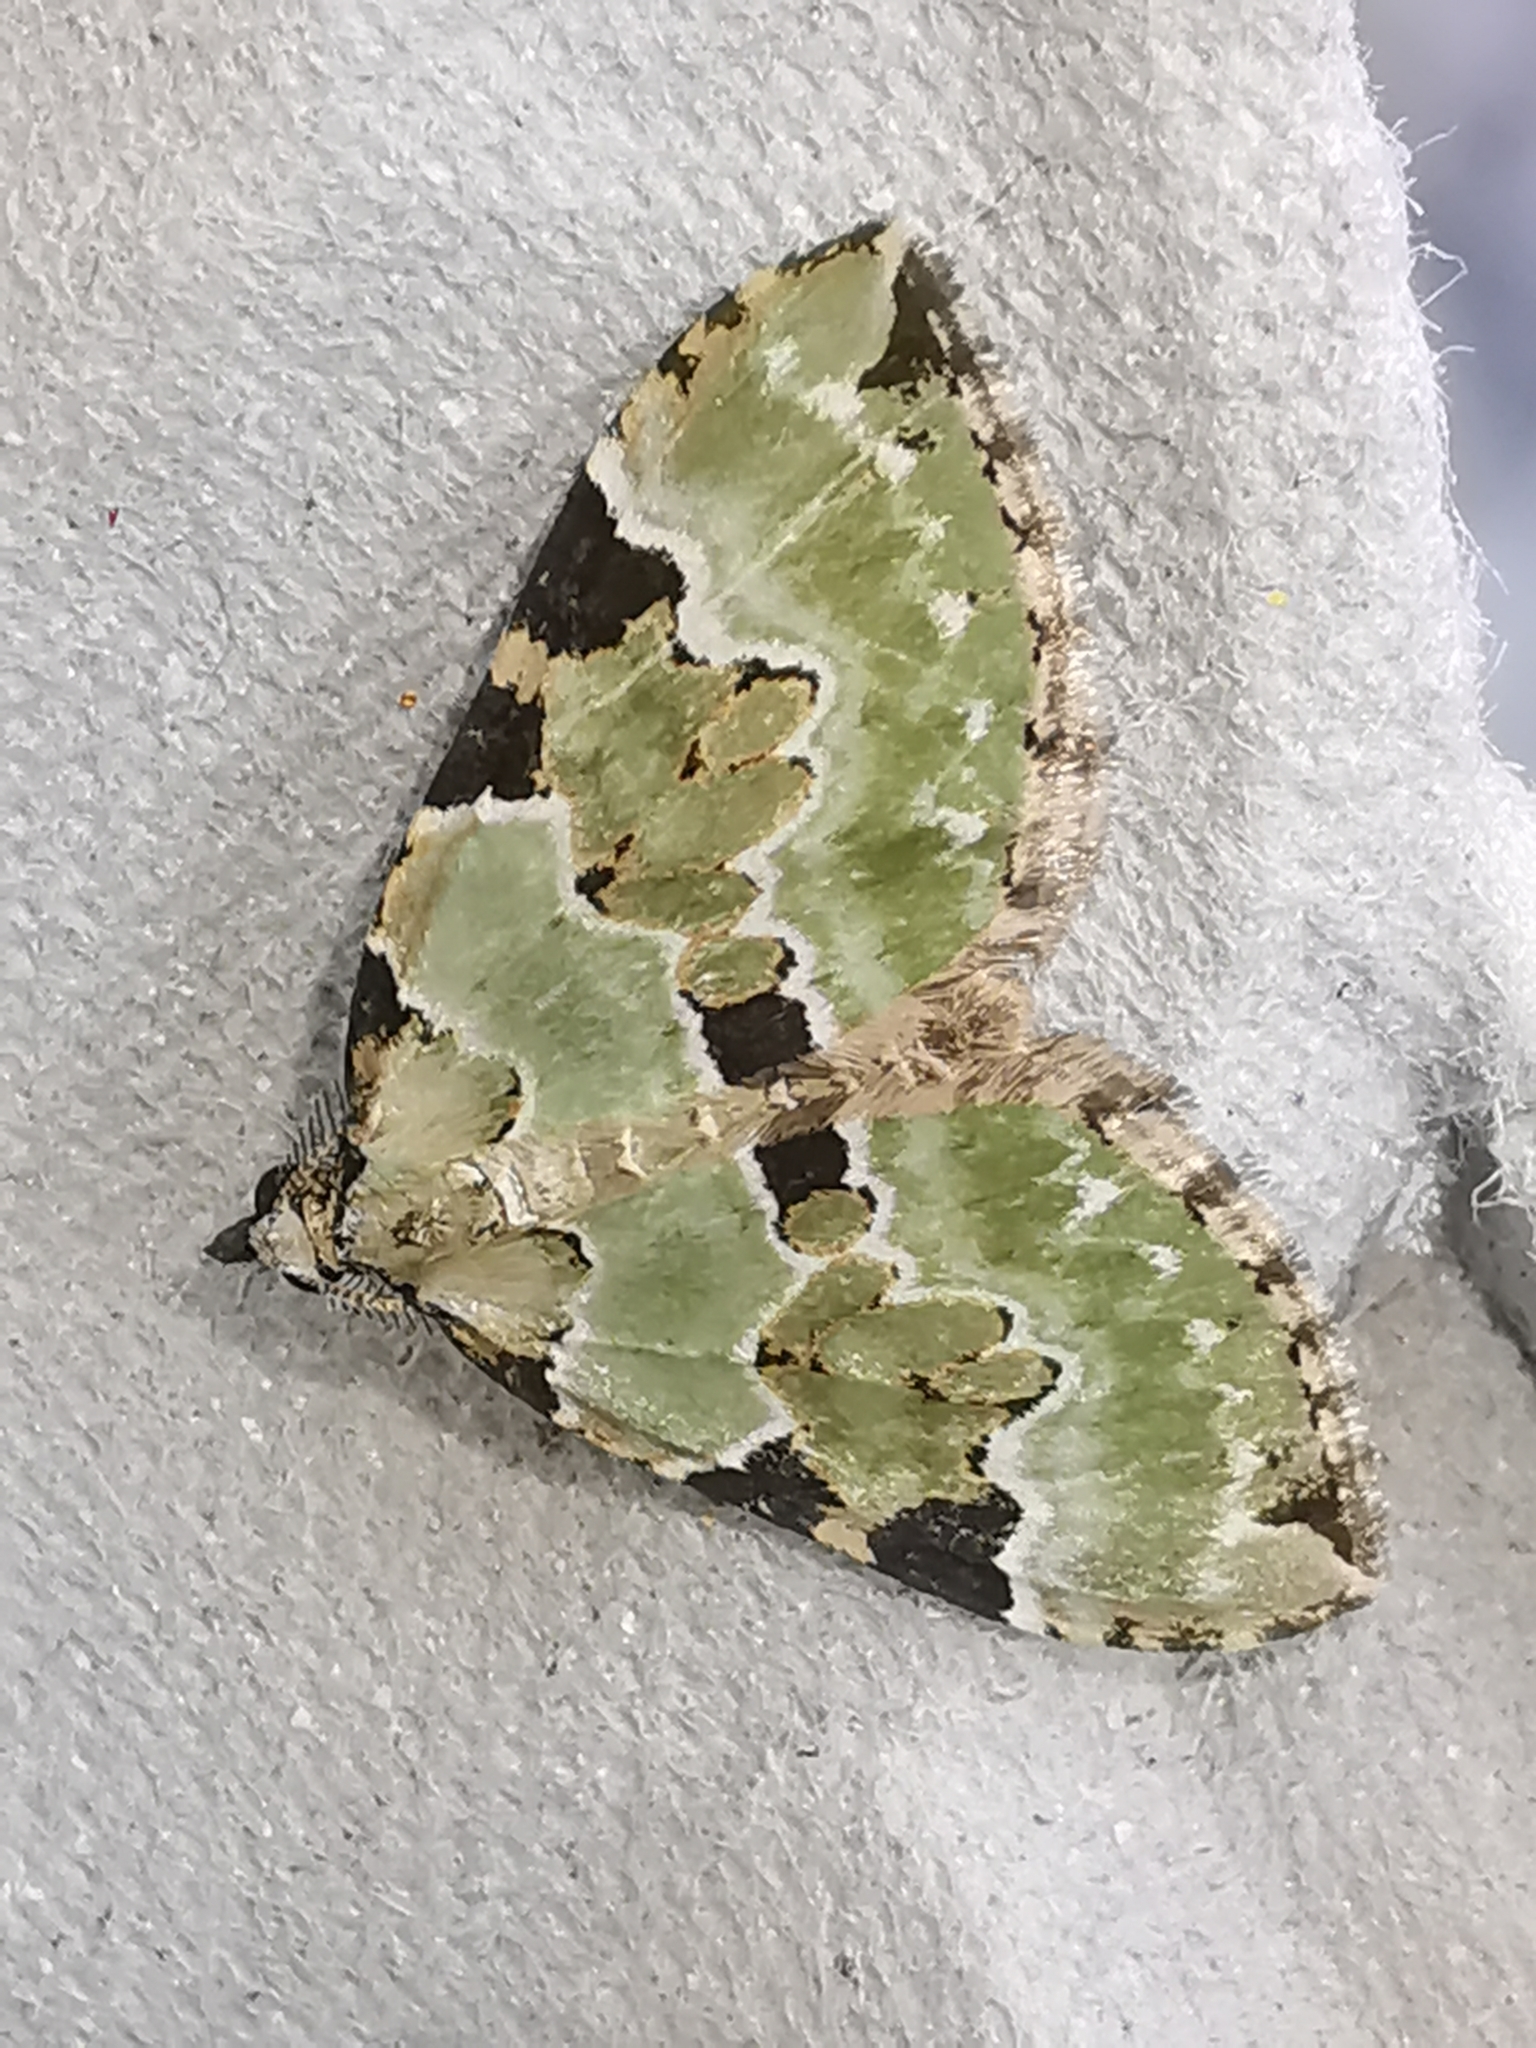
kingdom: Animalia
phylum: Arthropoda
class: Insecta
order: Lepidoptera
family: Geometridae
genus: Colostygia
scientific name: Colostygia pectinataria
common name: Green carpet
